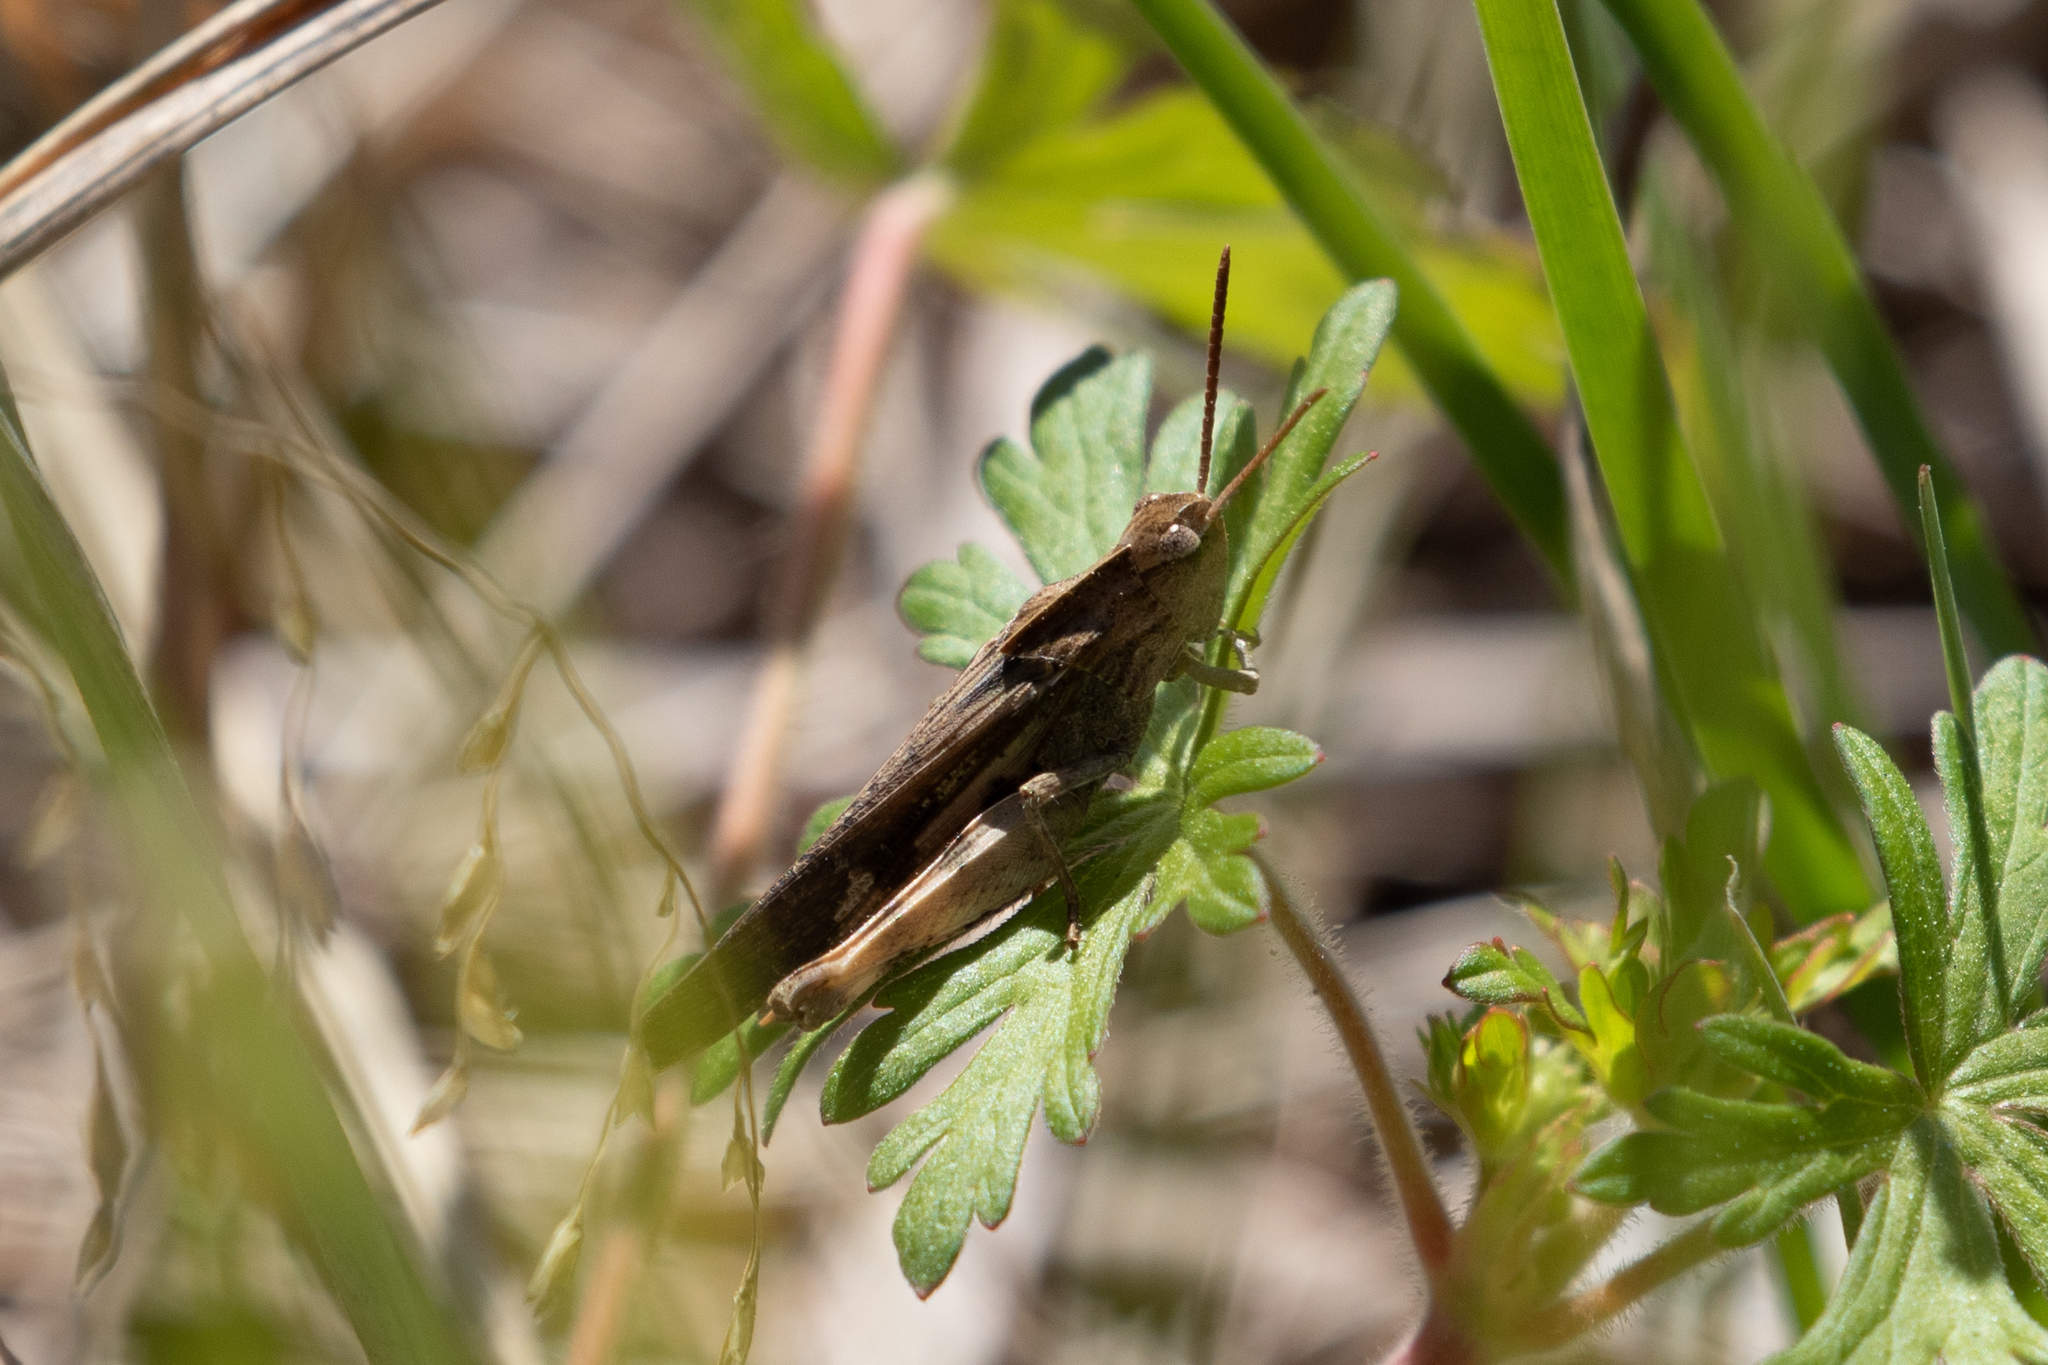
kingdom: Animalia
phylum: Arthropoda
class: Insecta
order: Orthoptera
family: Acrididae
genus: Chortophaga
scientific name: Chortophaga viridifasciata
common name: Green-striped grasshopper
